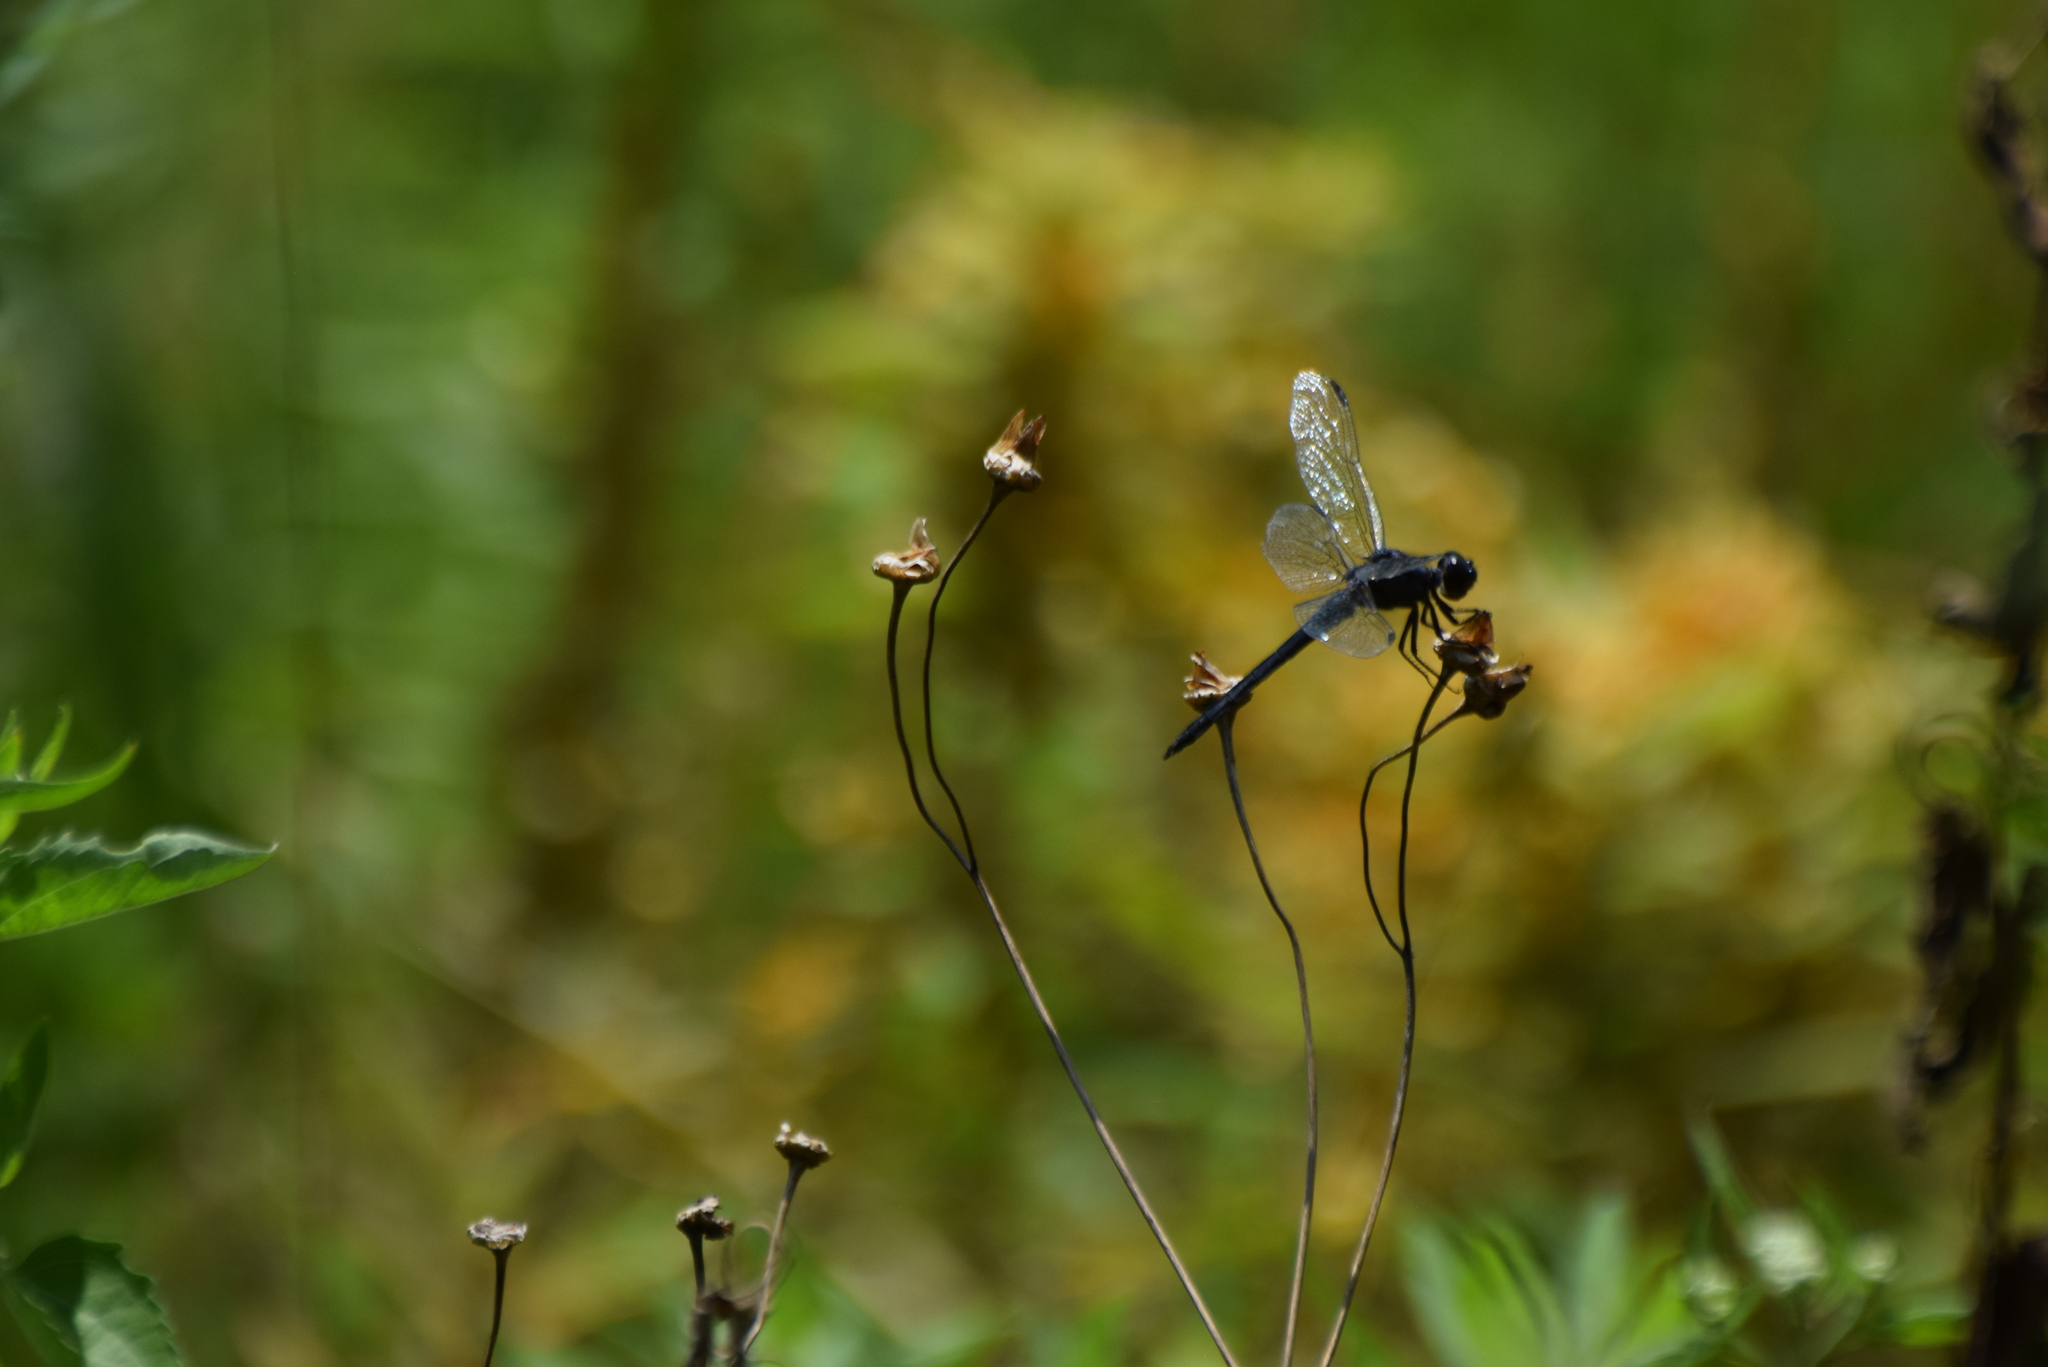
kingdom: Animalia
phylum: Arthropoda
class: Insecta
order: Odonata
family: Libellulidae
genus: Libellula
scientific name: Libellula incesta
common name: Slaty skimmer
